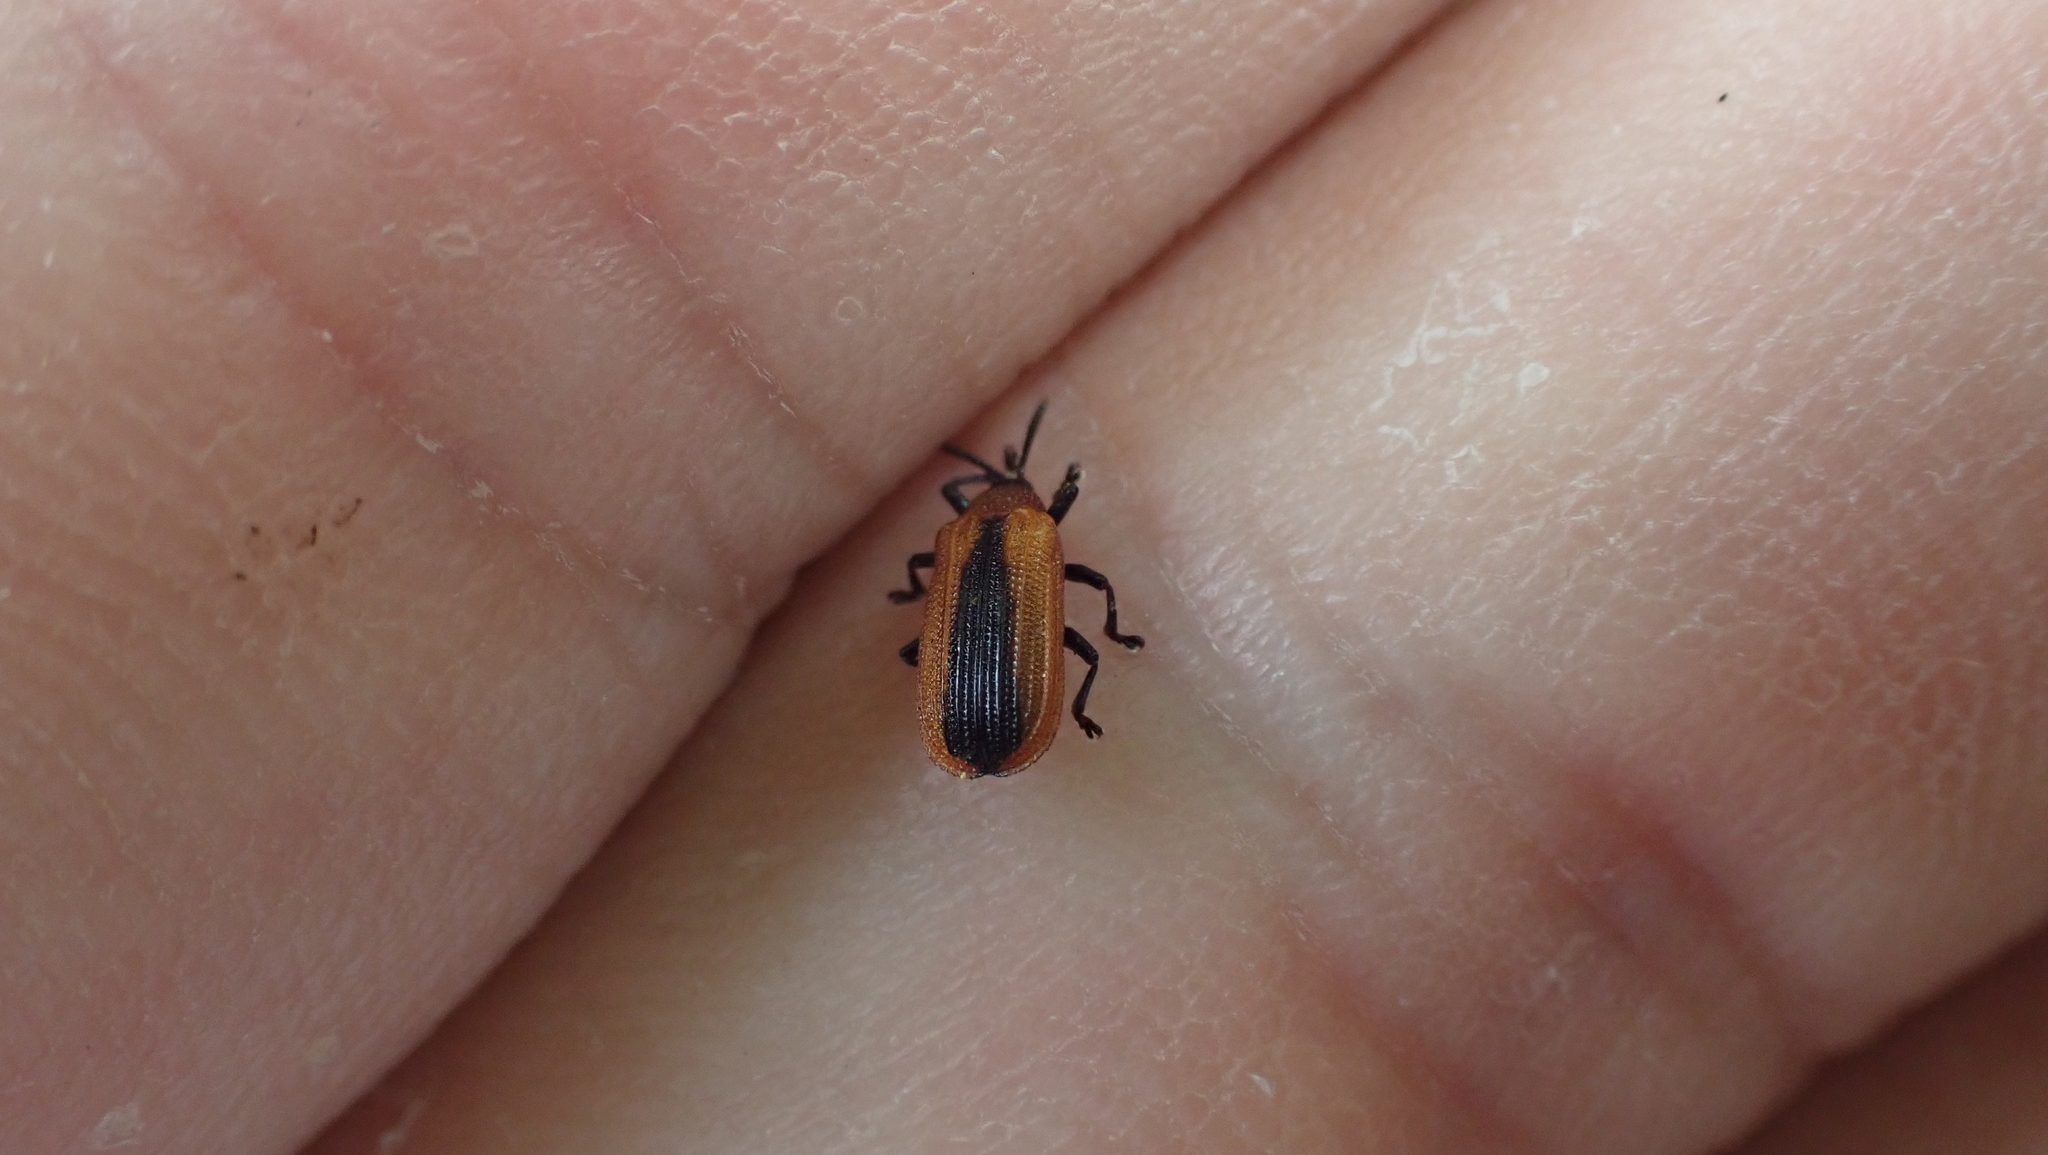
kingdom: Animalia
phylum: Arthropoda
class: Insecta
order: Coleoptera
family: Chrysomelidae
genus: Odontota
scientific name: Odontota dorsalis
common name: Locust leaf-miner beetle
